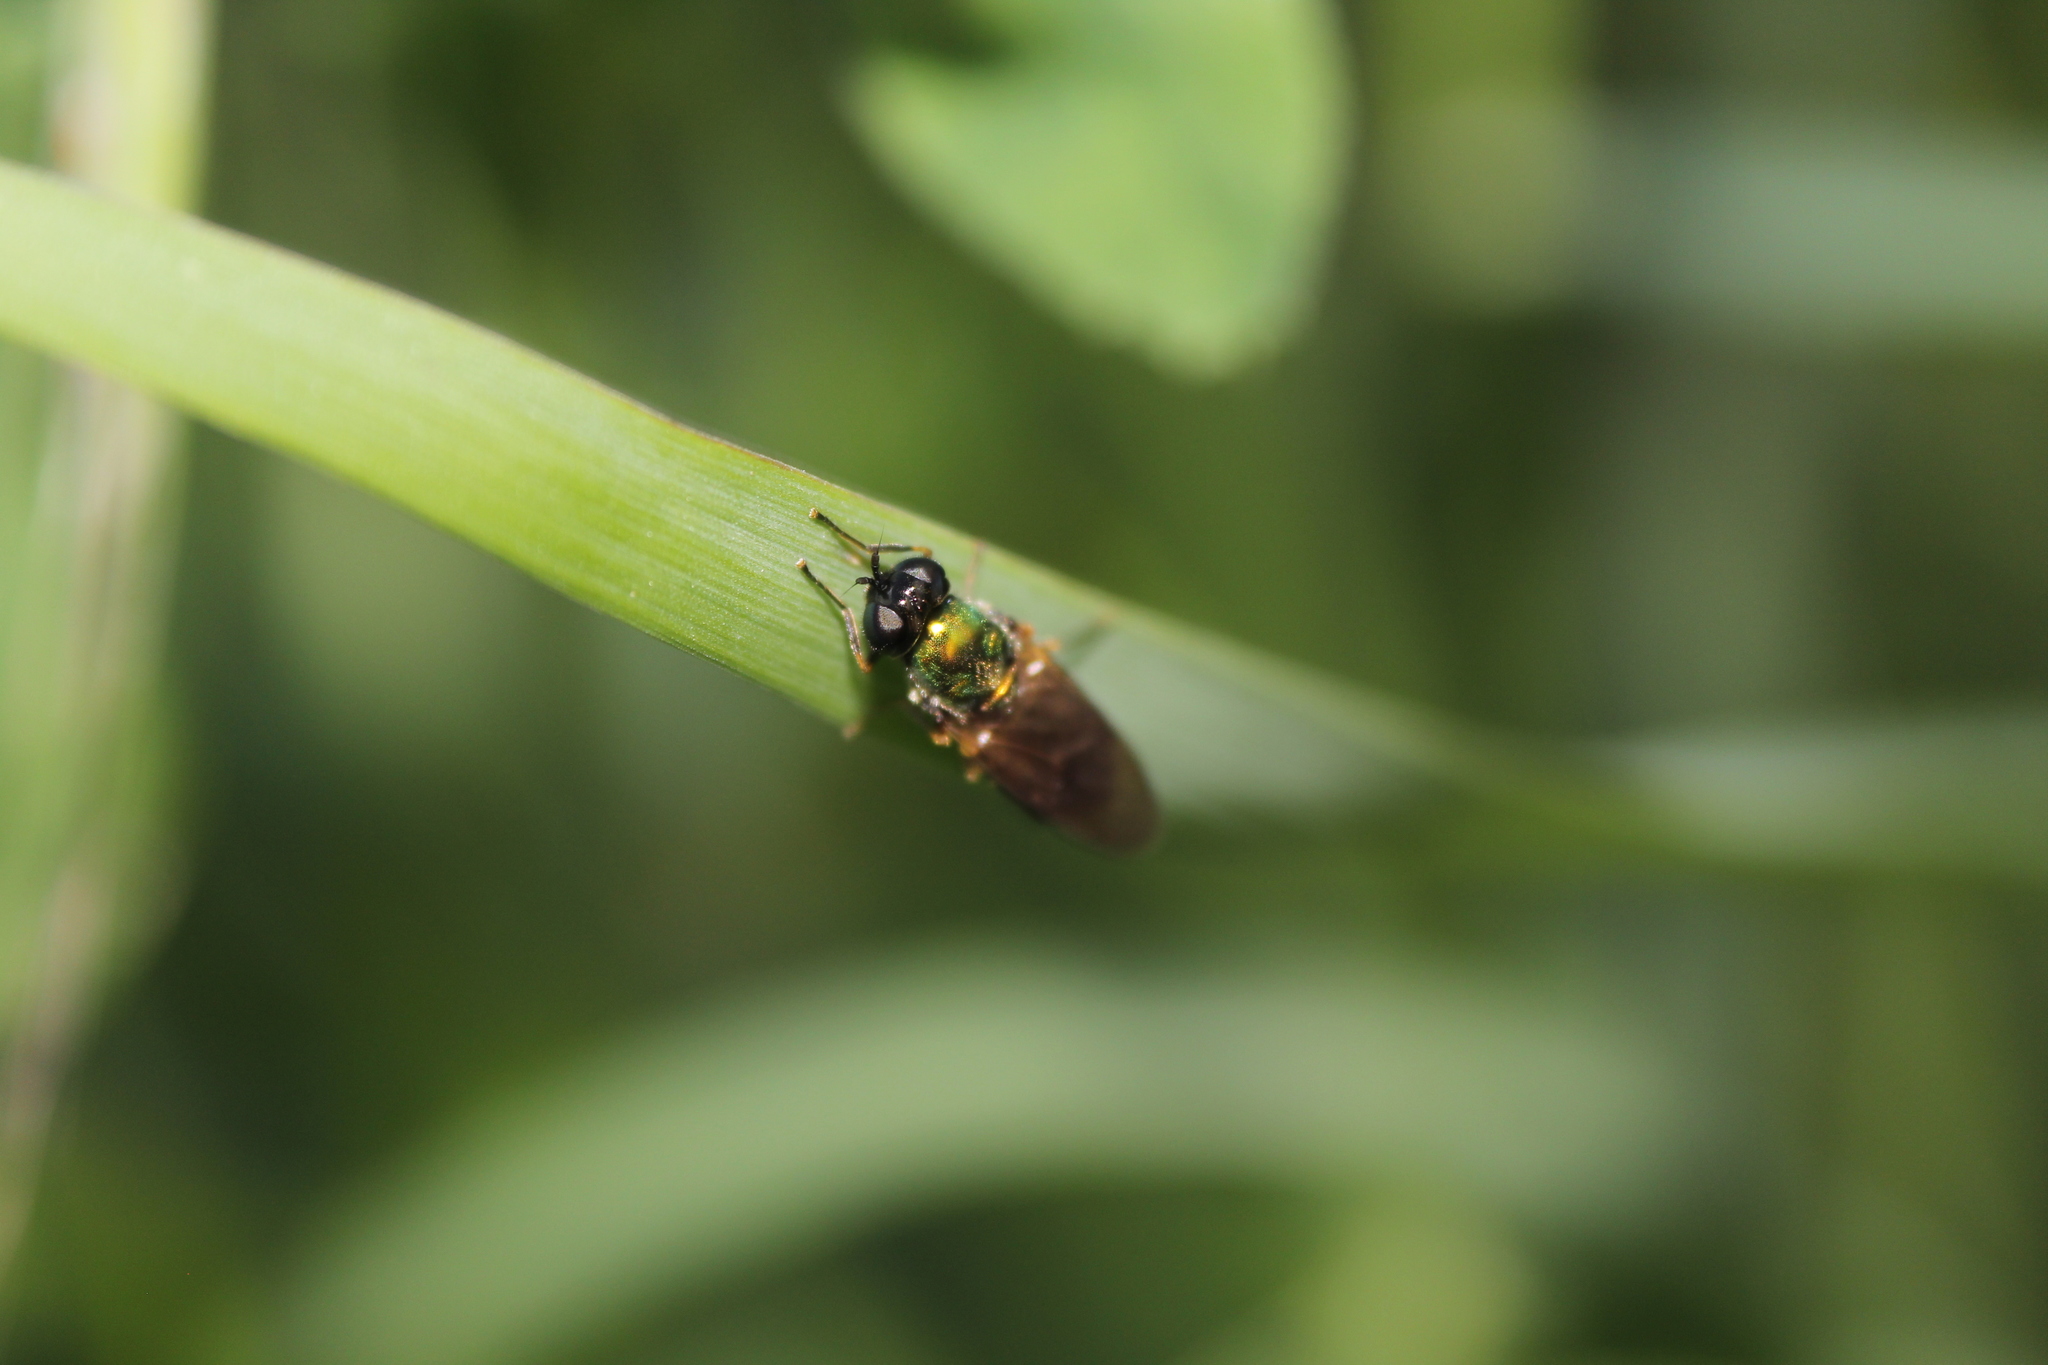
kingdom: Animalia
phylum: Arthropoda
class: Insecta
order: Diptera
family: Stratiomyidae
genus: Chloromyia
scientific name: Chloromyia formosa
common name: Soldier fly
